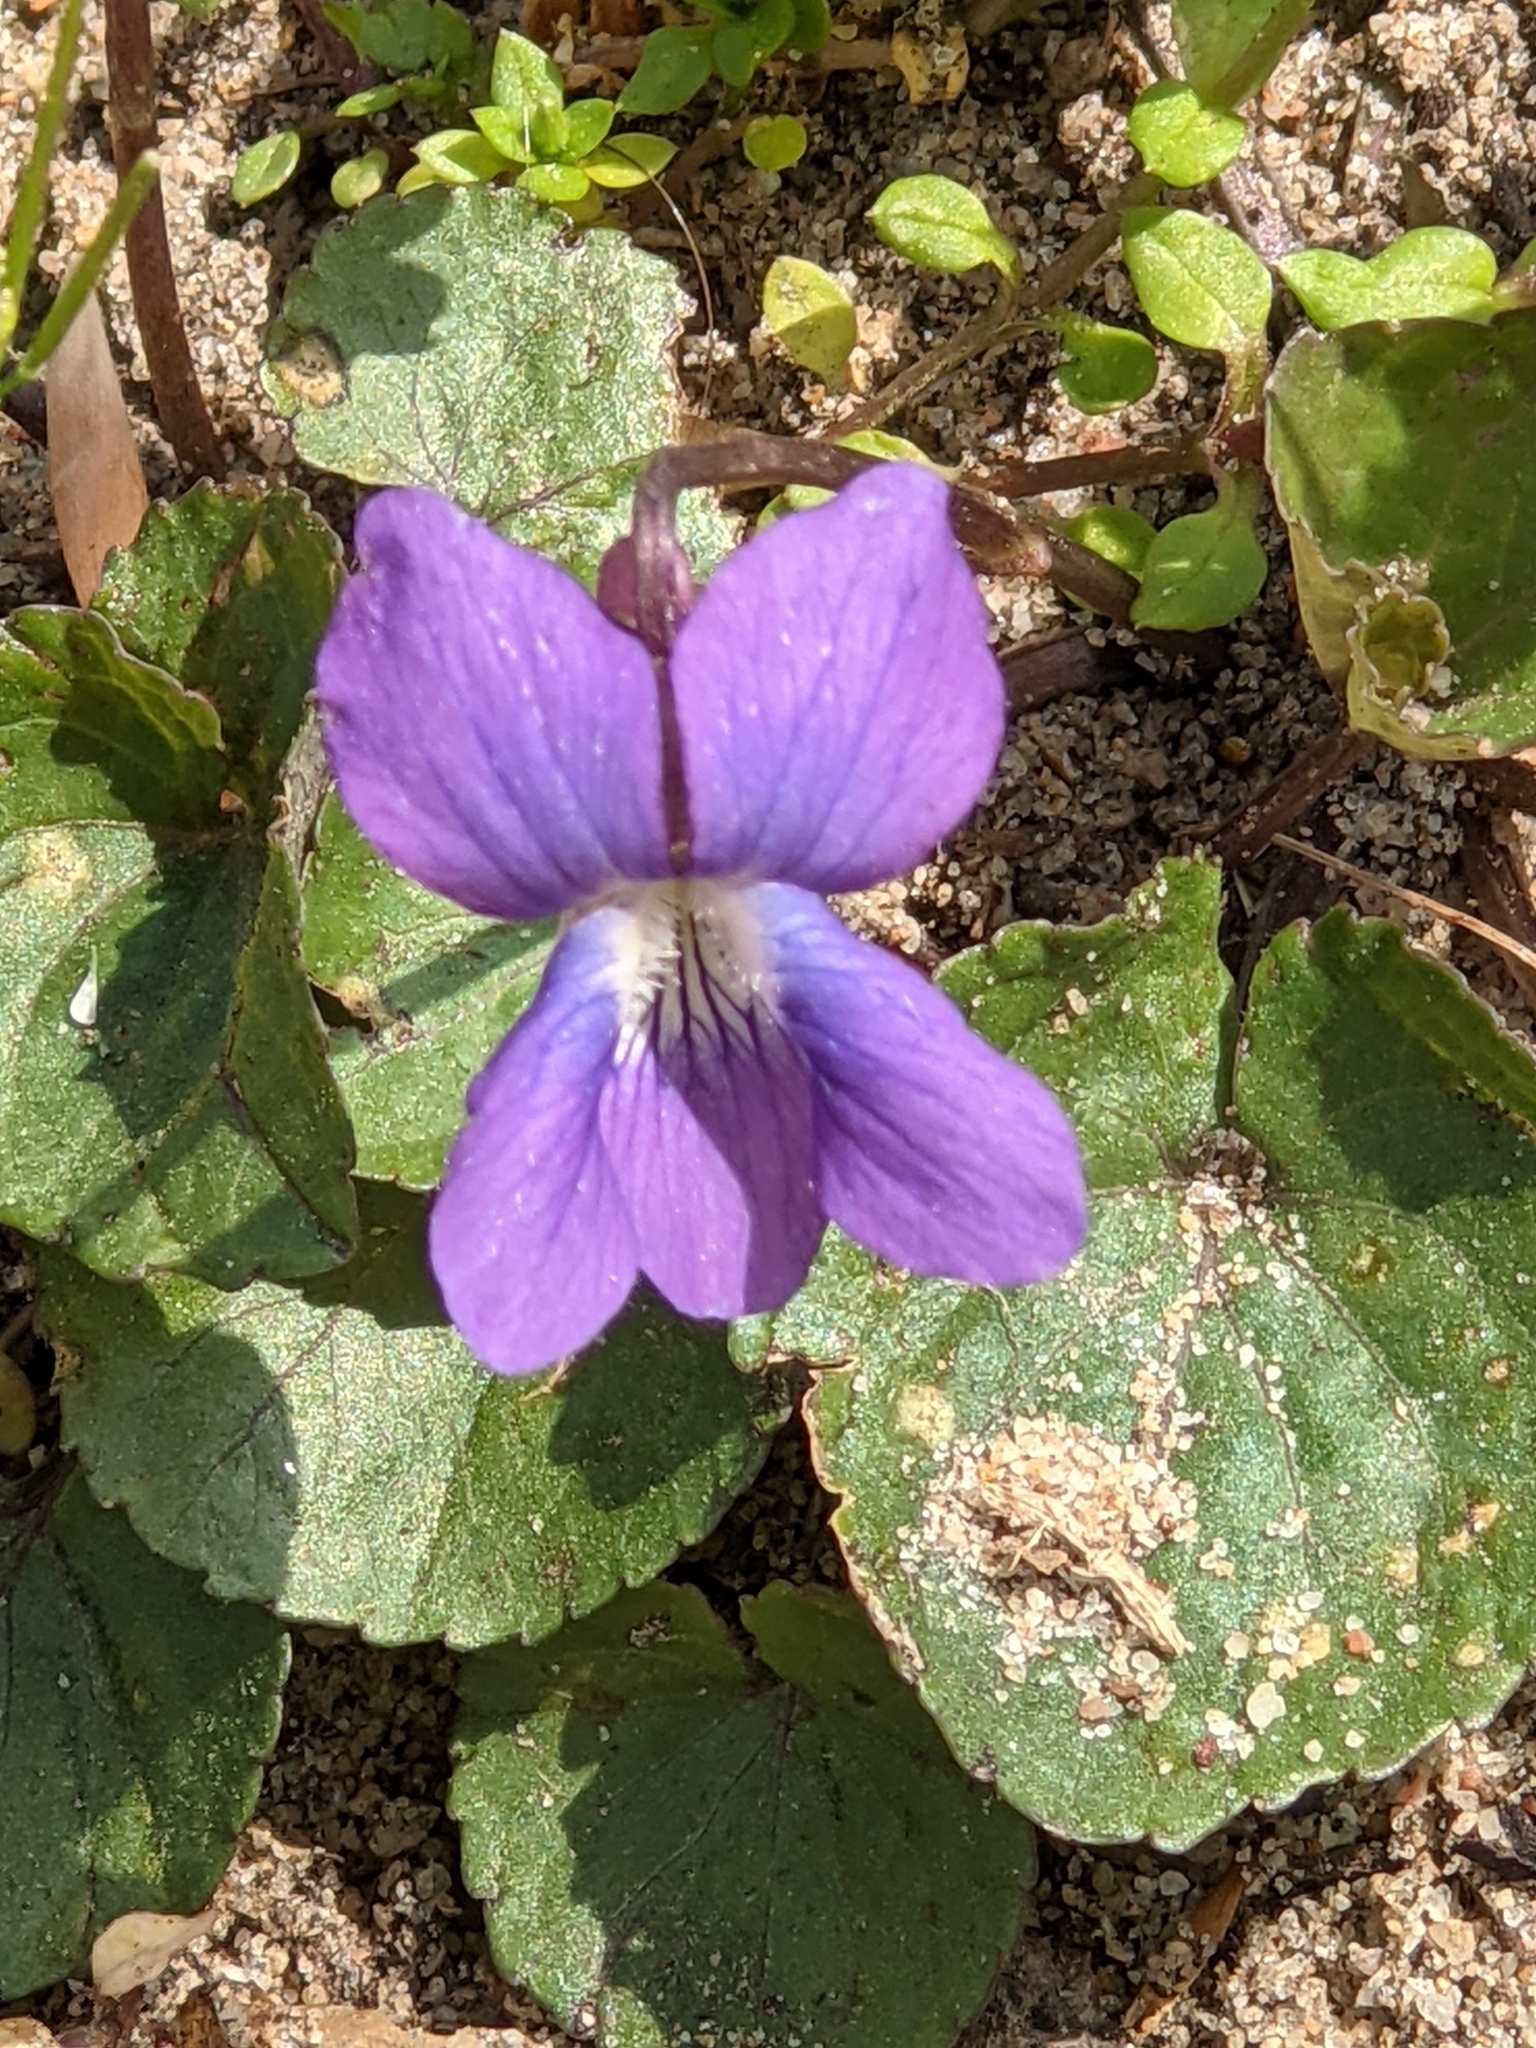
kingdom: Plantae
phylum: Tracheophyta
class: Magnoliopsida
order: Malpighiales
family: Violaceae
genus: Viola
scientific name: Viola sororia
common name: Dooryard violet
